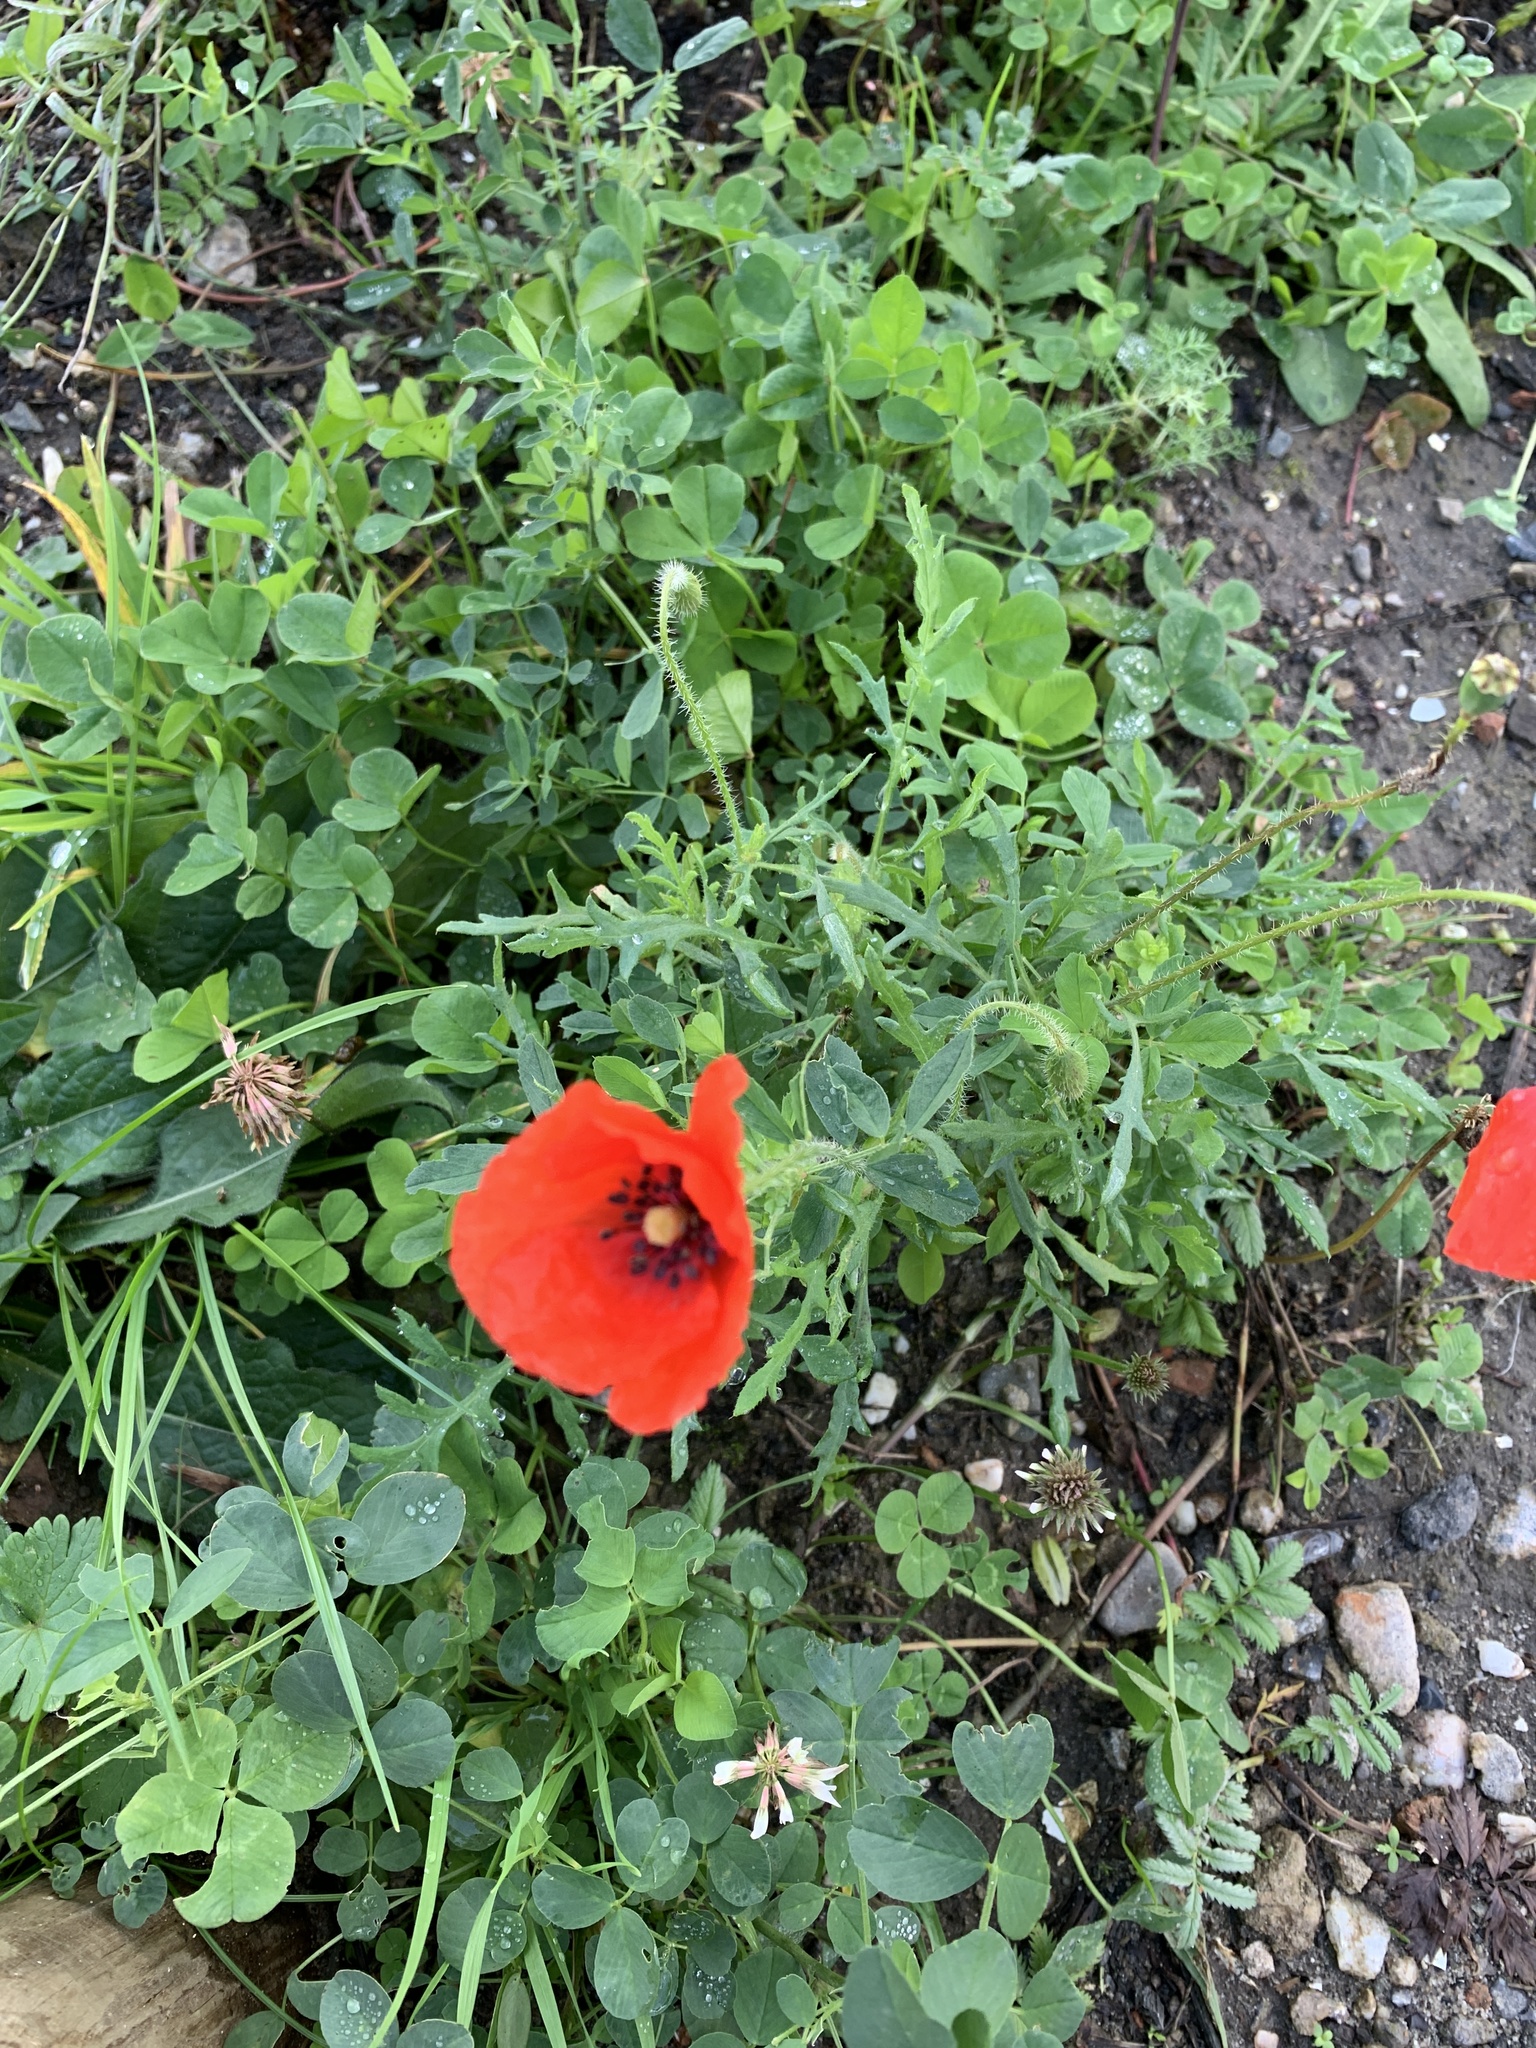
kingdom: Plantae
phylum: Tracheophyta
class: Magnoliopsida
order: Ranunculales
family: Papaveraceae
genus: Papaver
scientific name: Papaver rhoeas
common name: Corn poppy
